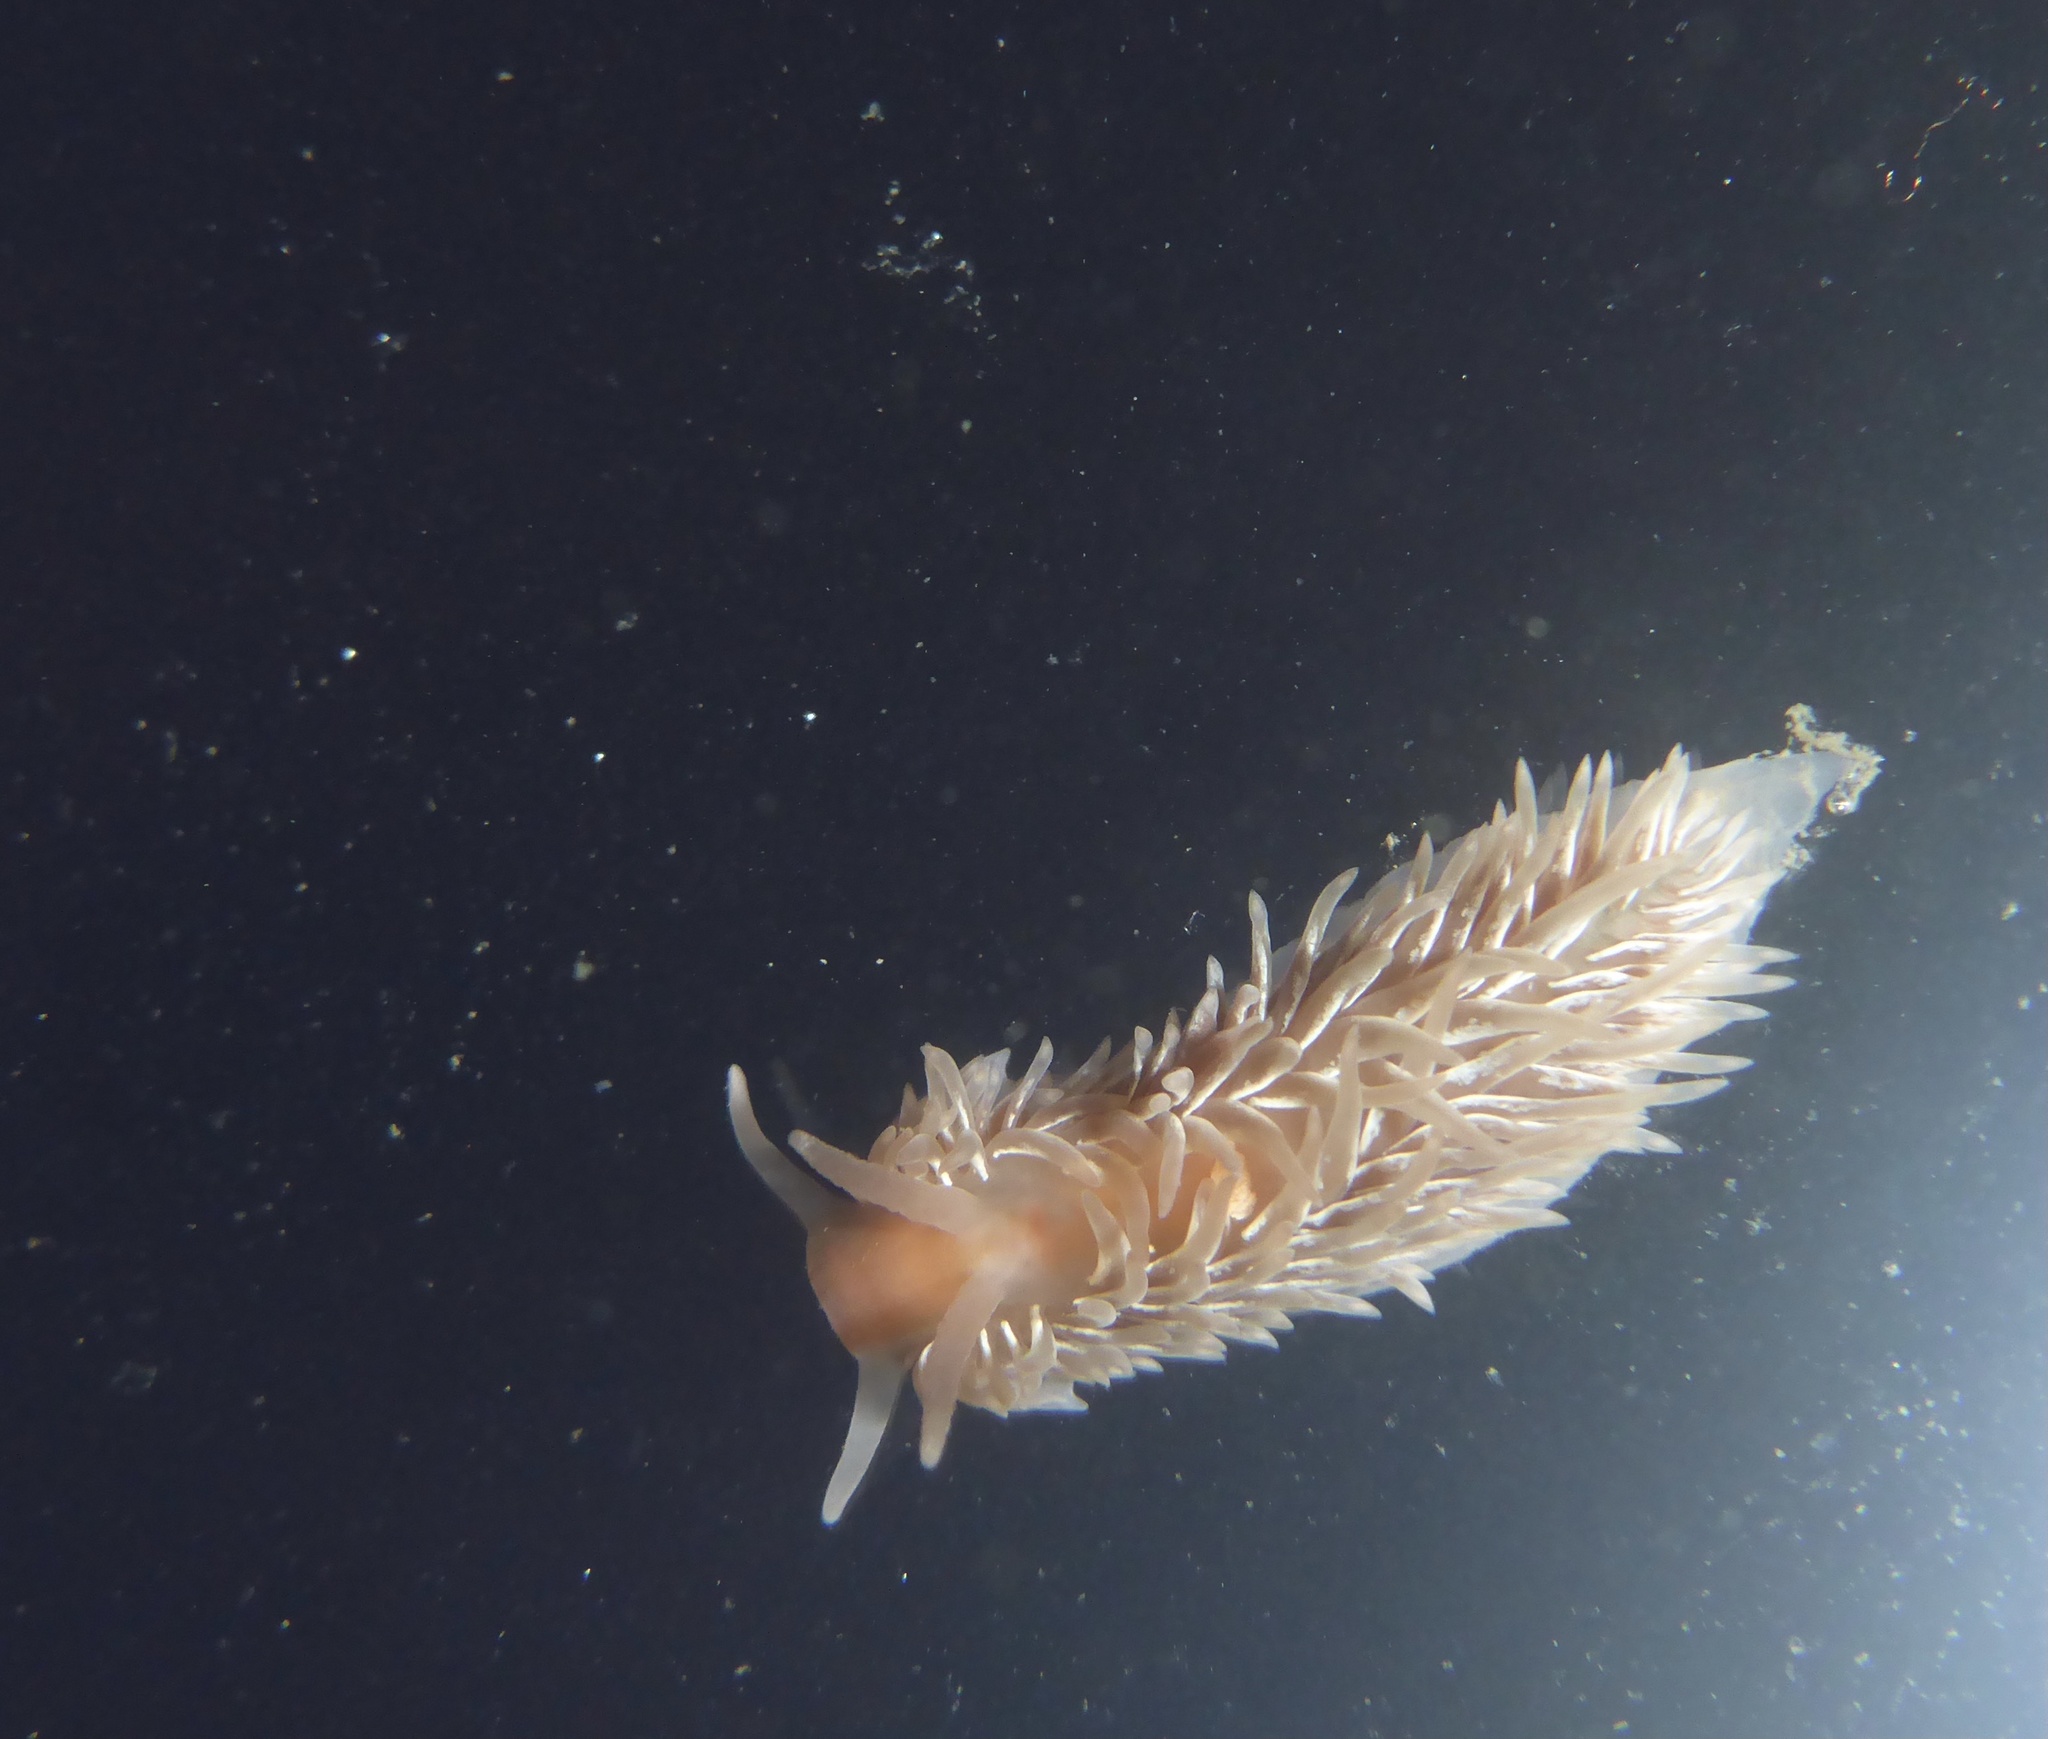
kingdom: Animalia
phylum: Mollusca
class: Gastropoda
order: Nudibranchia
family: Aeolidiidae
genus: Aeolidia
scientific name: Aeolidia loui
